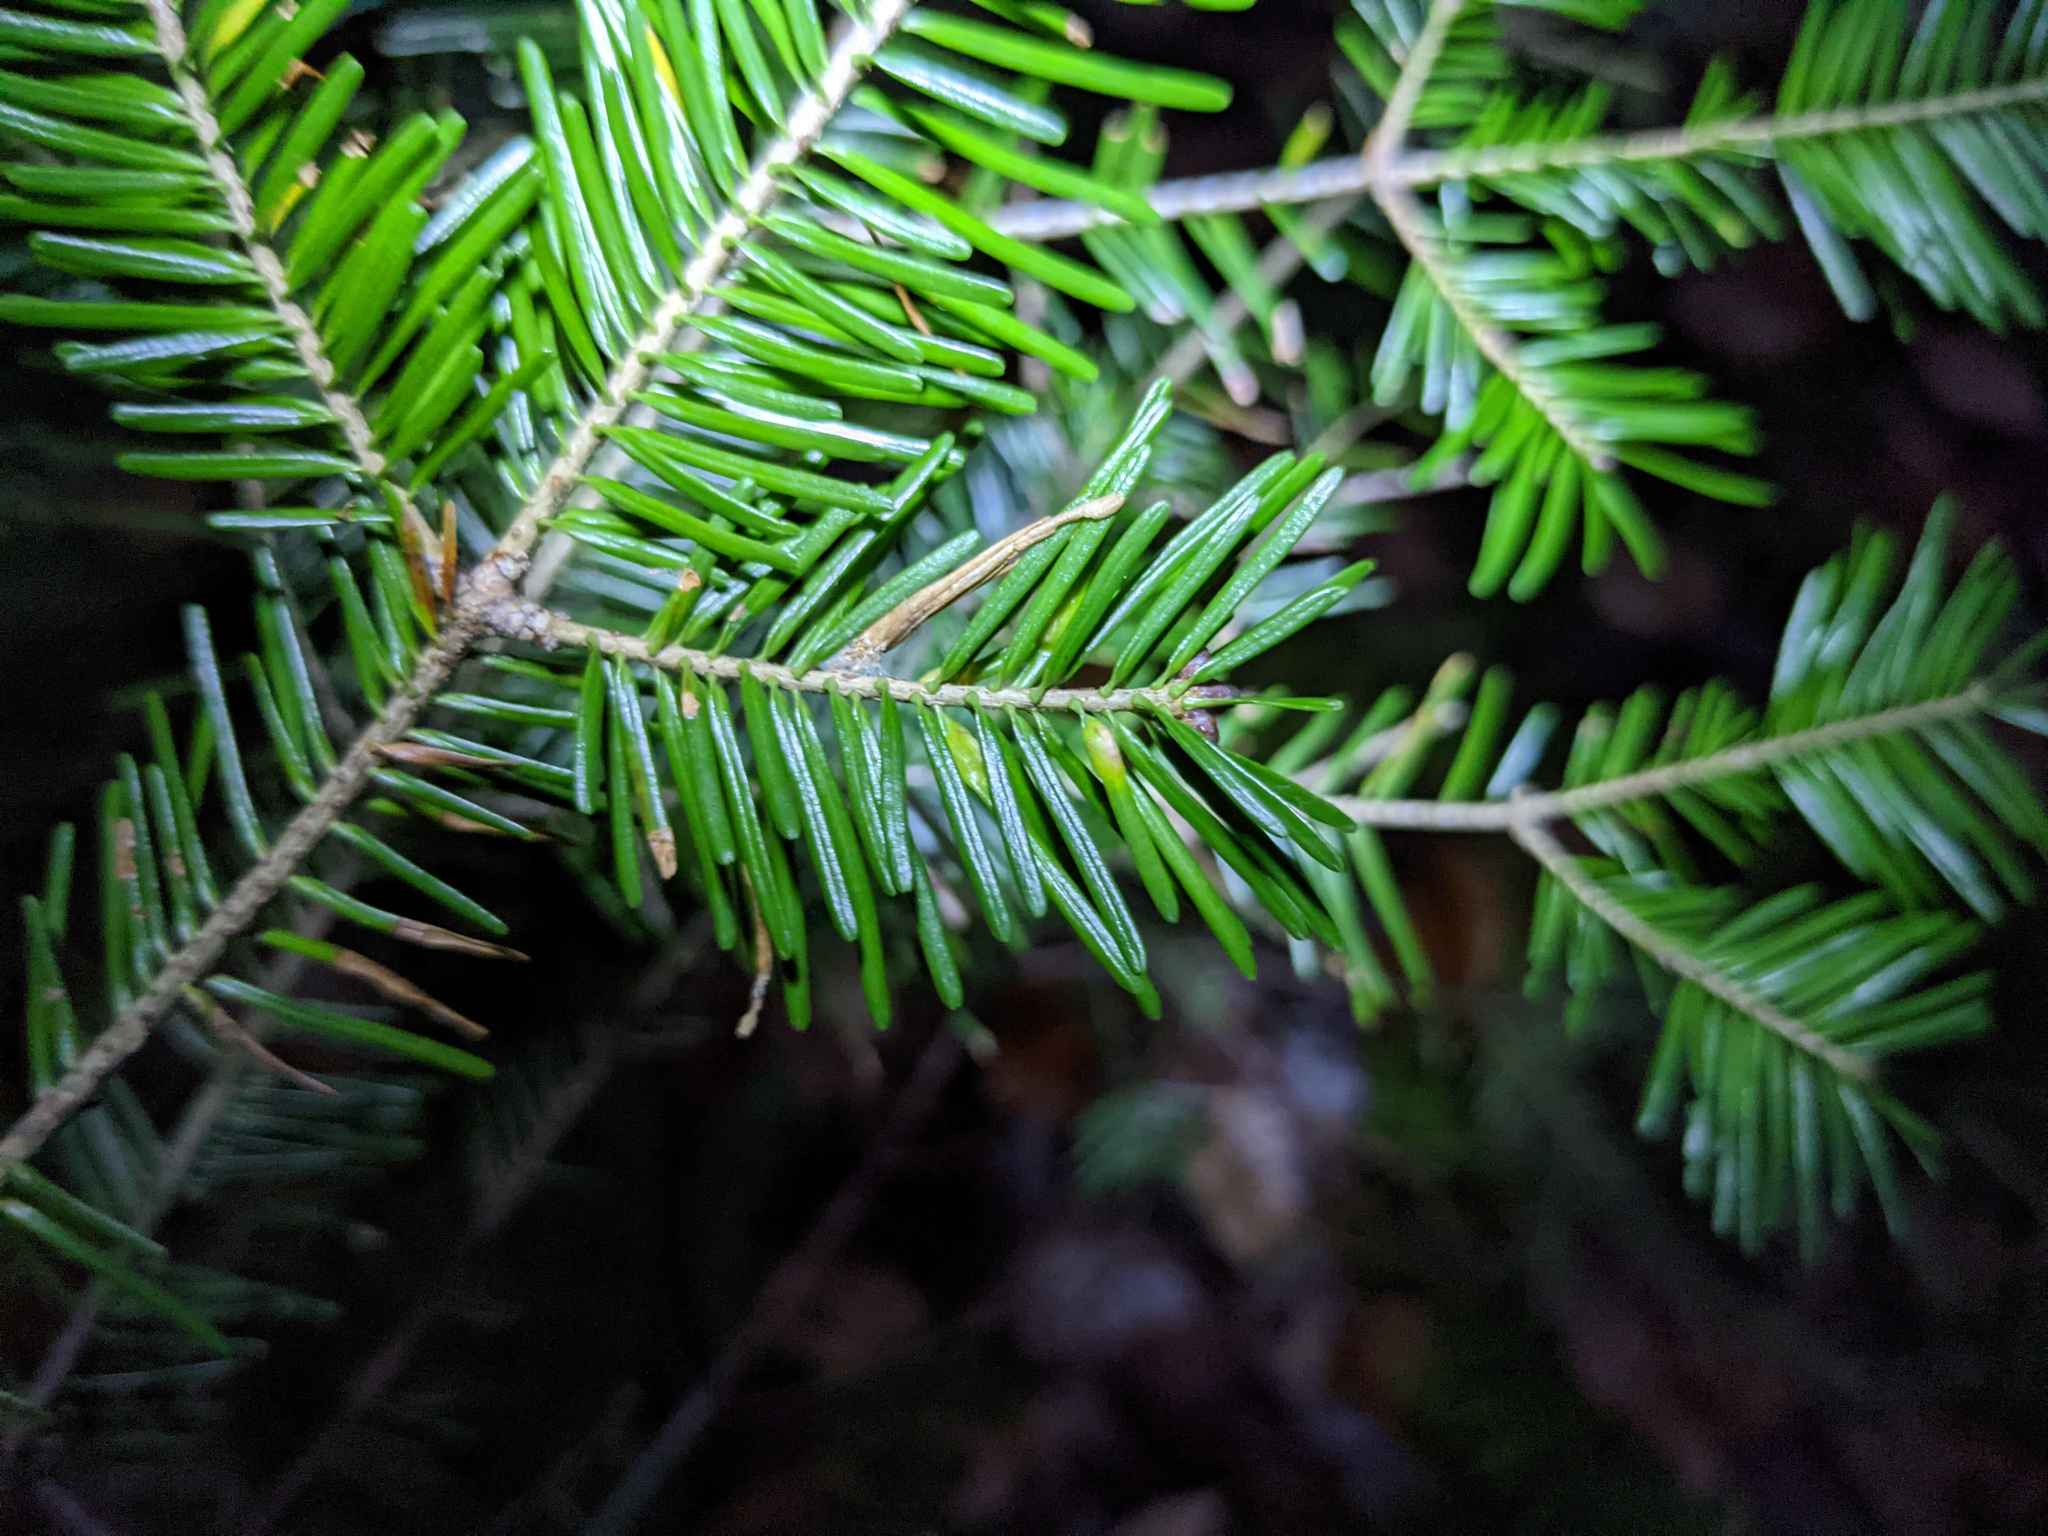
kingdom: Animalia
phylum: Arthropoda
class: Insecta
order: Diptera
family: Cecidomyiidae
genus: Paradiplosis
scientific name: Paradiplosis tumifex
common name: Gall midge
